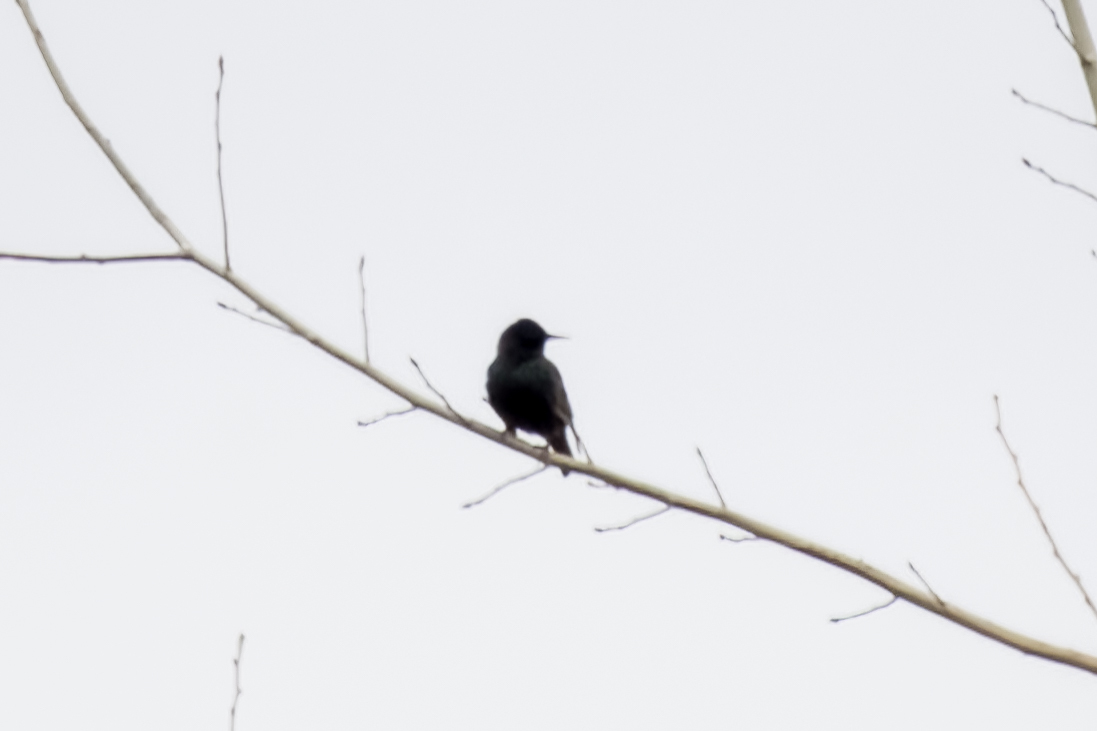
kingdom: Animalia
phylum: Chordata
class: Aves
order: Passeriformes
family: Sturnidae
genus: Sturnus
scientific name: Sturnus vulgaris
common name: Common starling
